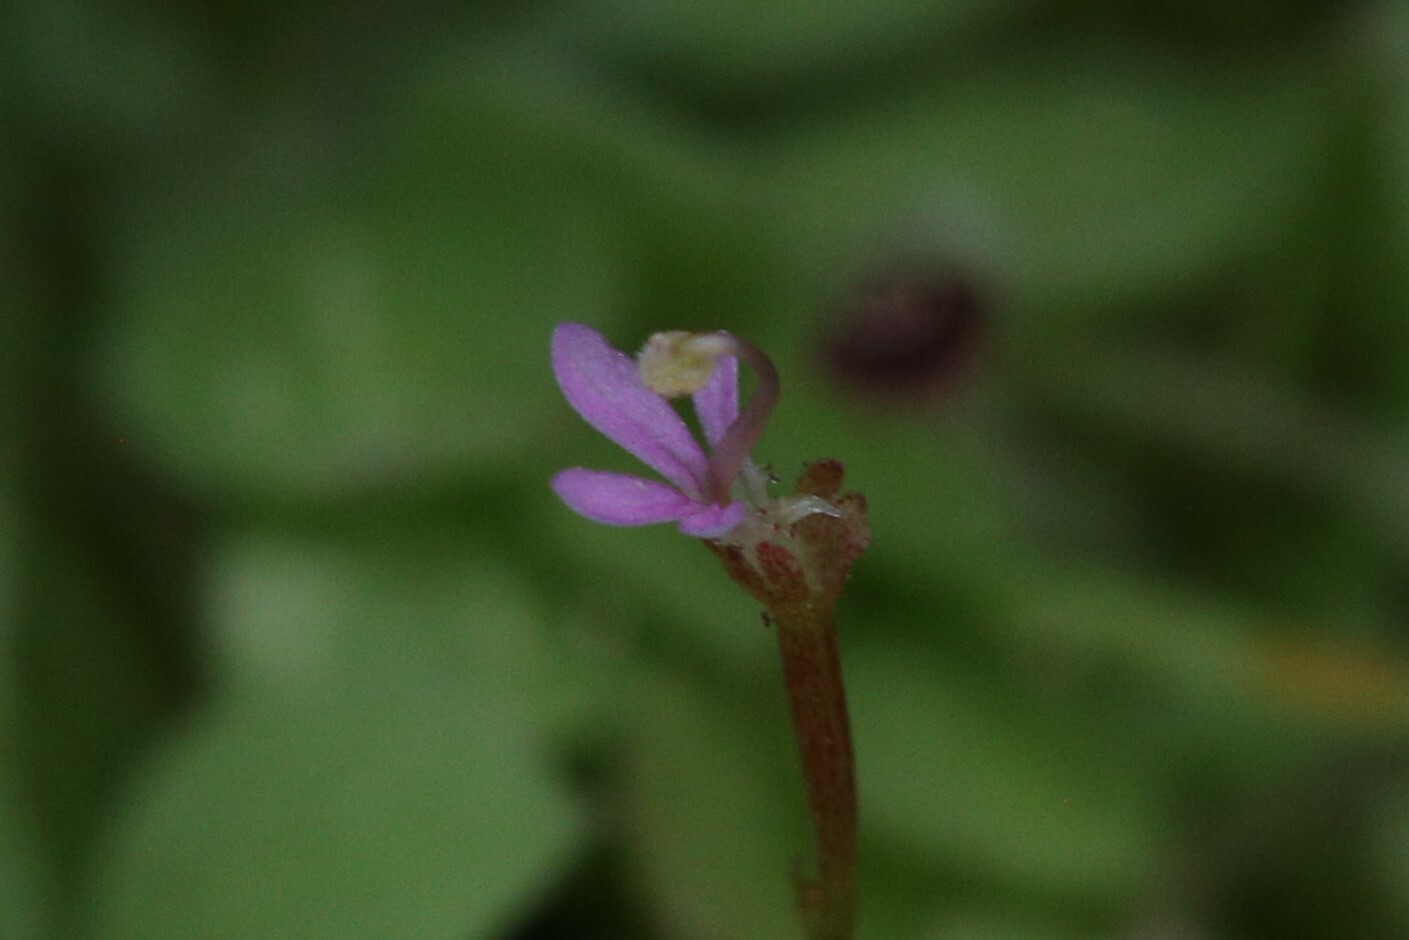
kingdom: Plantae
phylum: Tracheophyta
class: Magnoliopsida
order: Asterales
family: Stylidiaceae
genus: Stylidium
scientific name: Stylidium elachophyllum
